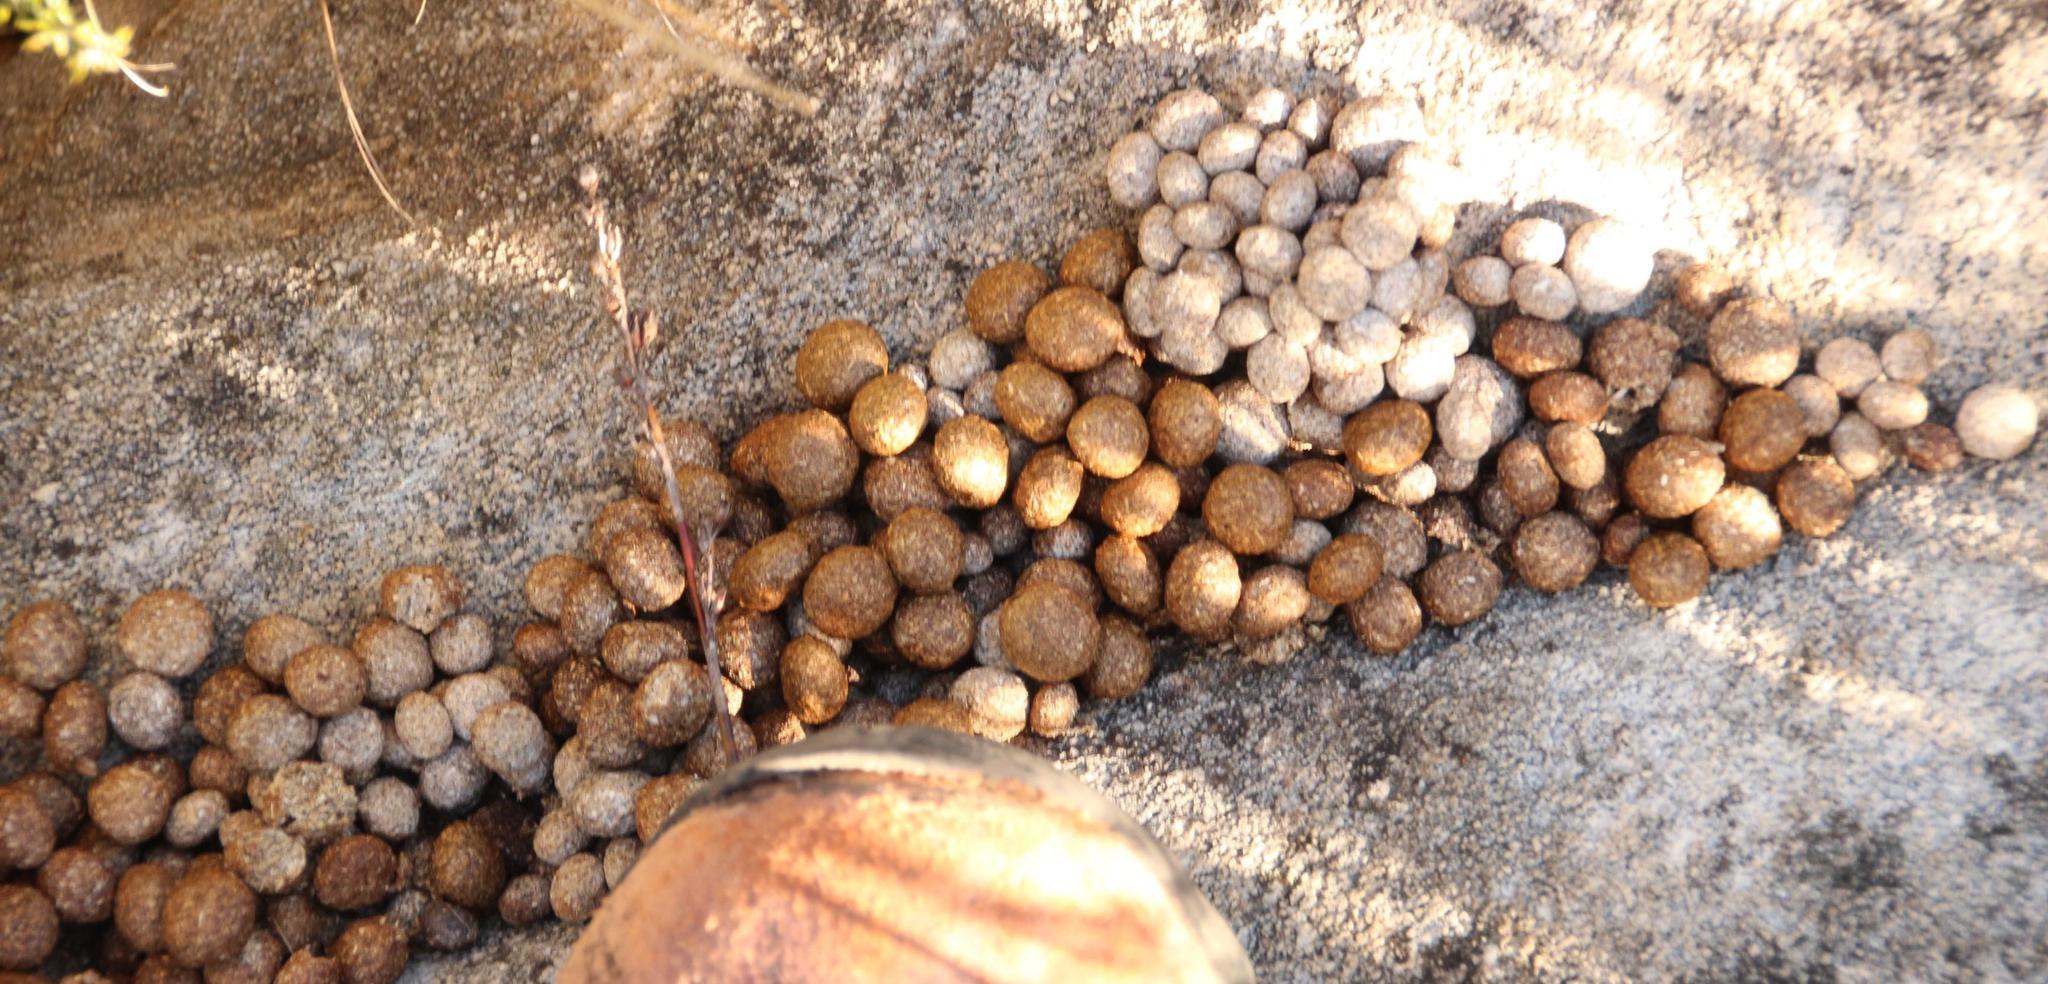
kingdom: Animalia
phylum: Chordata
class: Mammalia
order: Lagomorpha
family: Leporidae
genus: Pronolagus
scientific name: Pronolagus saundersiae
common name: Hewitt's red rock hare
